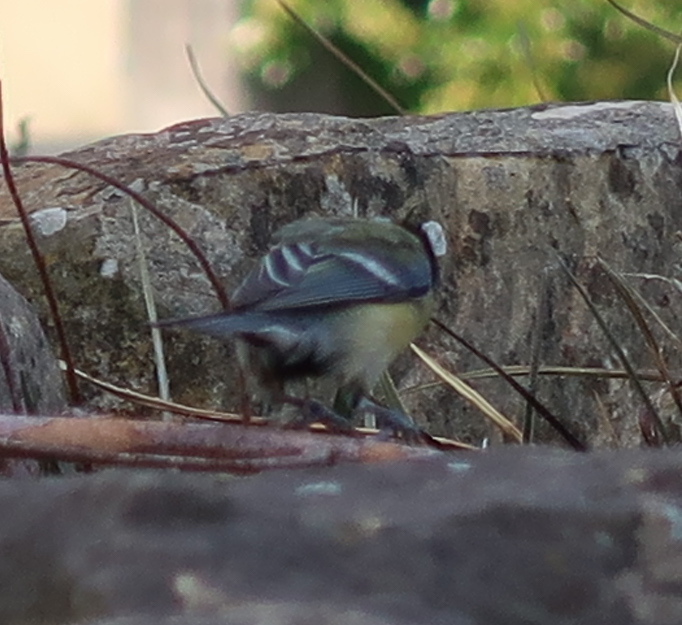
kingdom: Animalia
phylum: Chordata
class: Aves
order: Passeriformes
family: Paridae
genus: Parus
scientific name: Parus major
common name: Great tit
